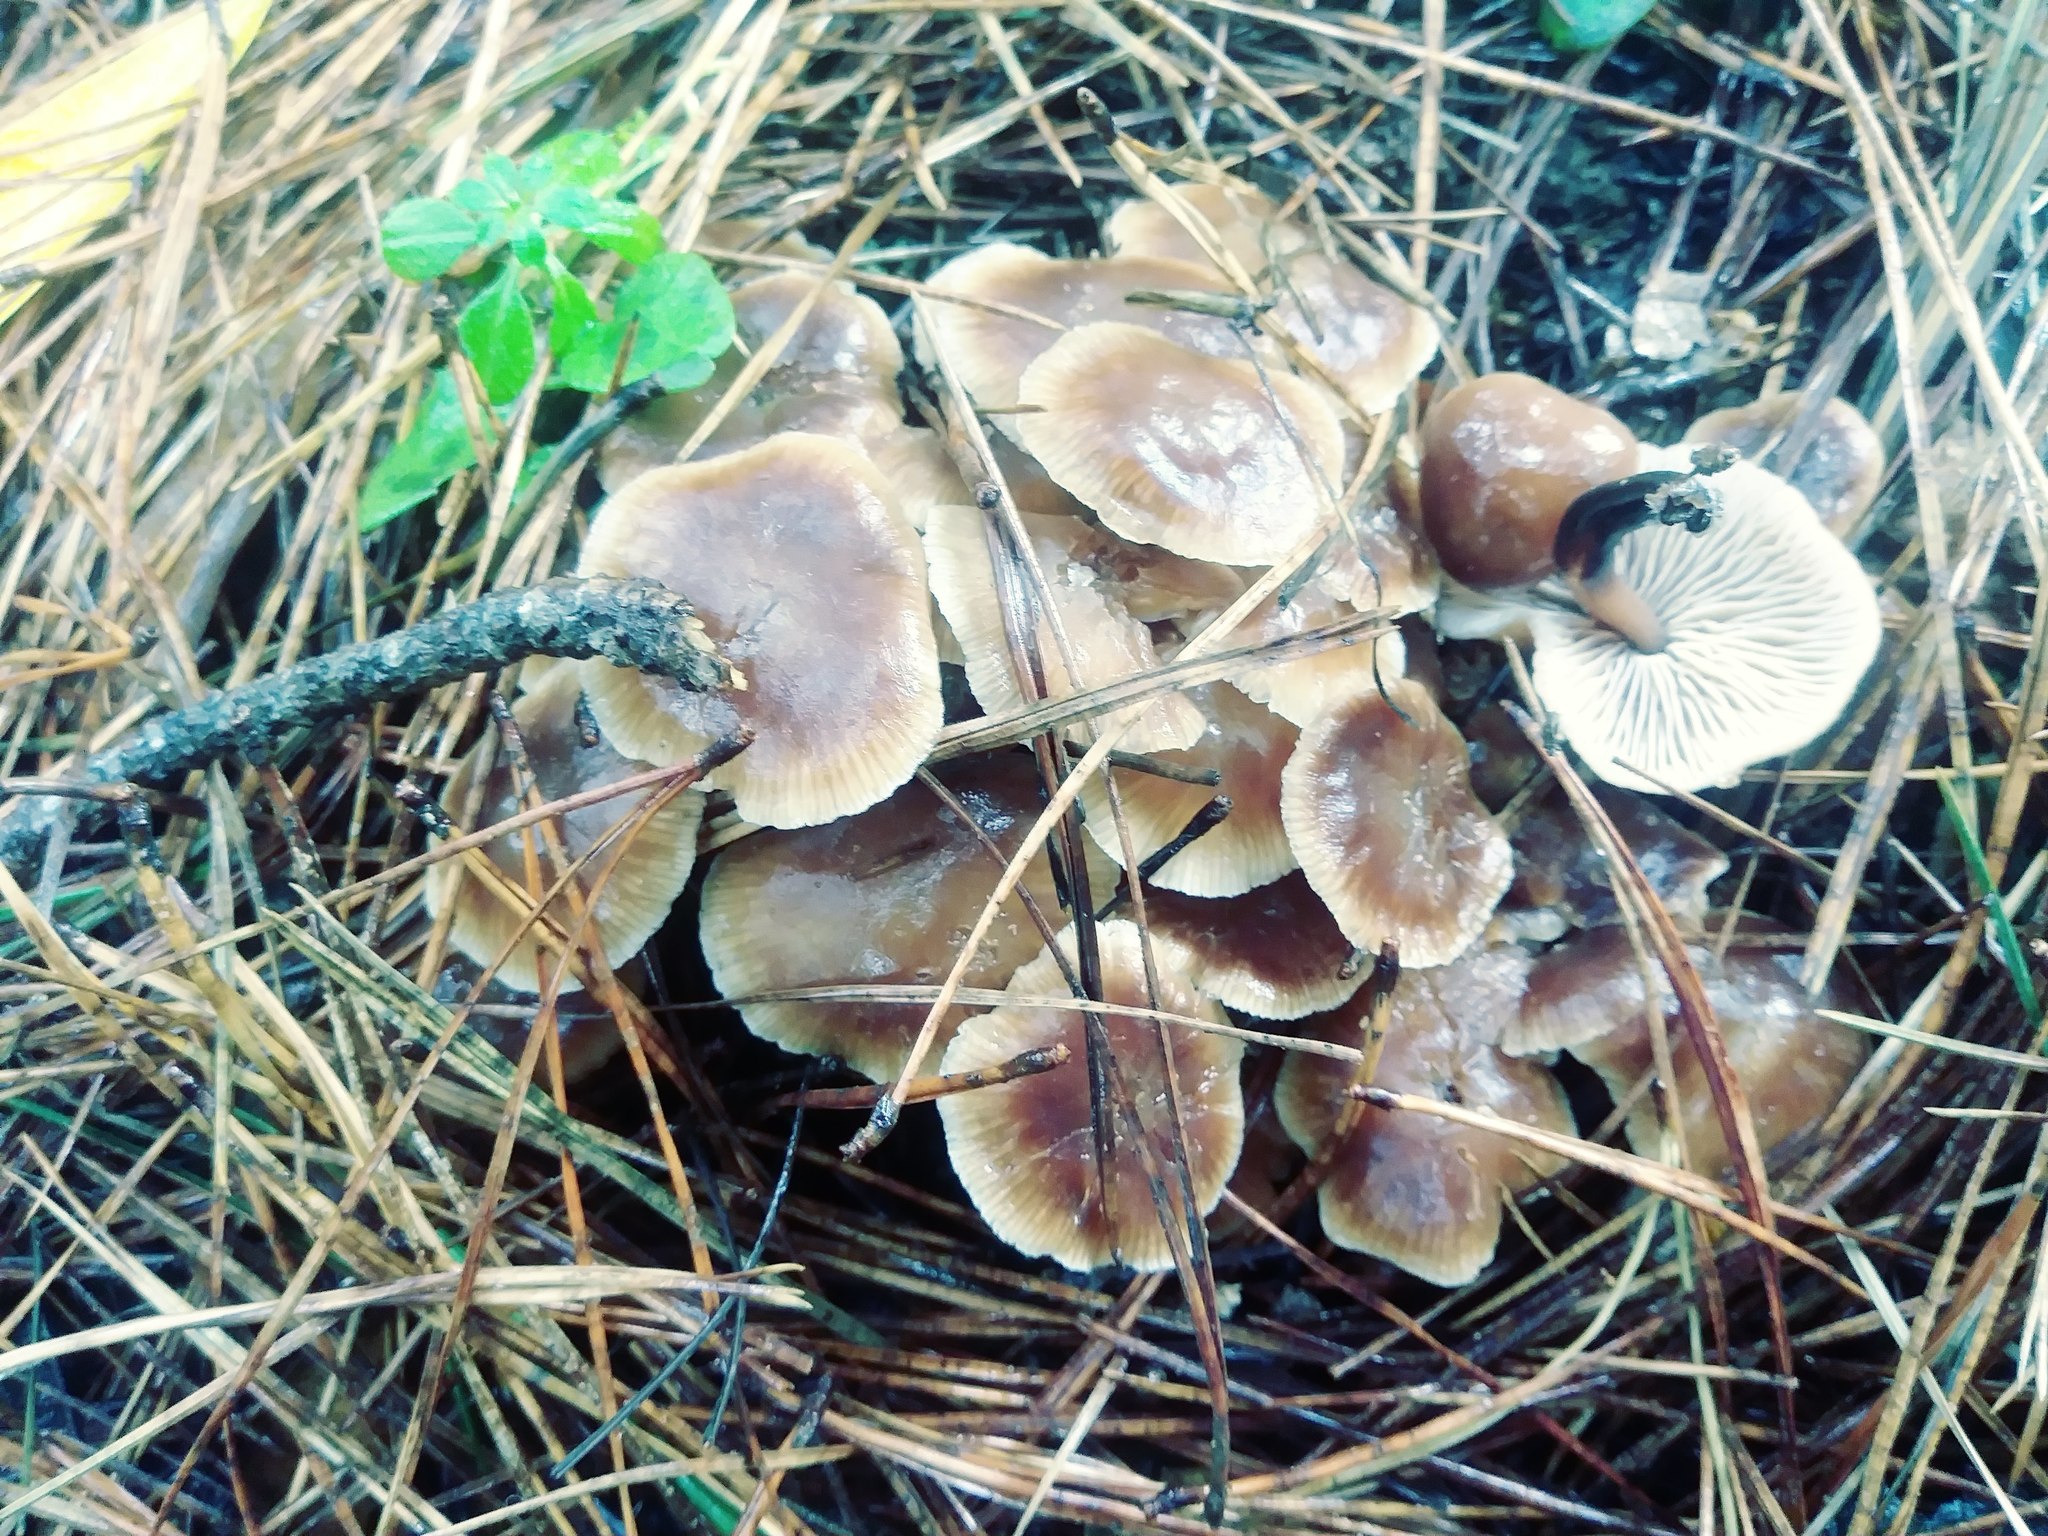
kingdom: Fungi
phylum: Basidiomycota
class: Agaricomycetes
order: Agaricales
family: Omphalotaceae
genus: Gymnopus
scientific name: Gymnopus brassicolens
